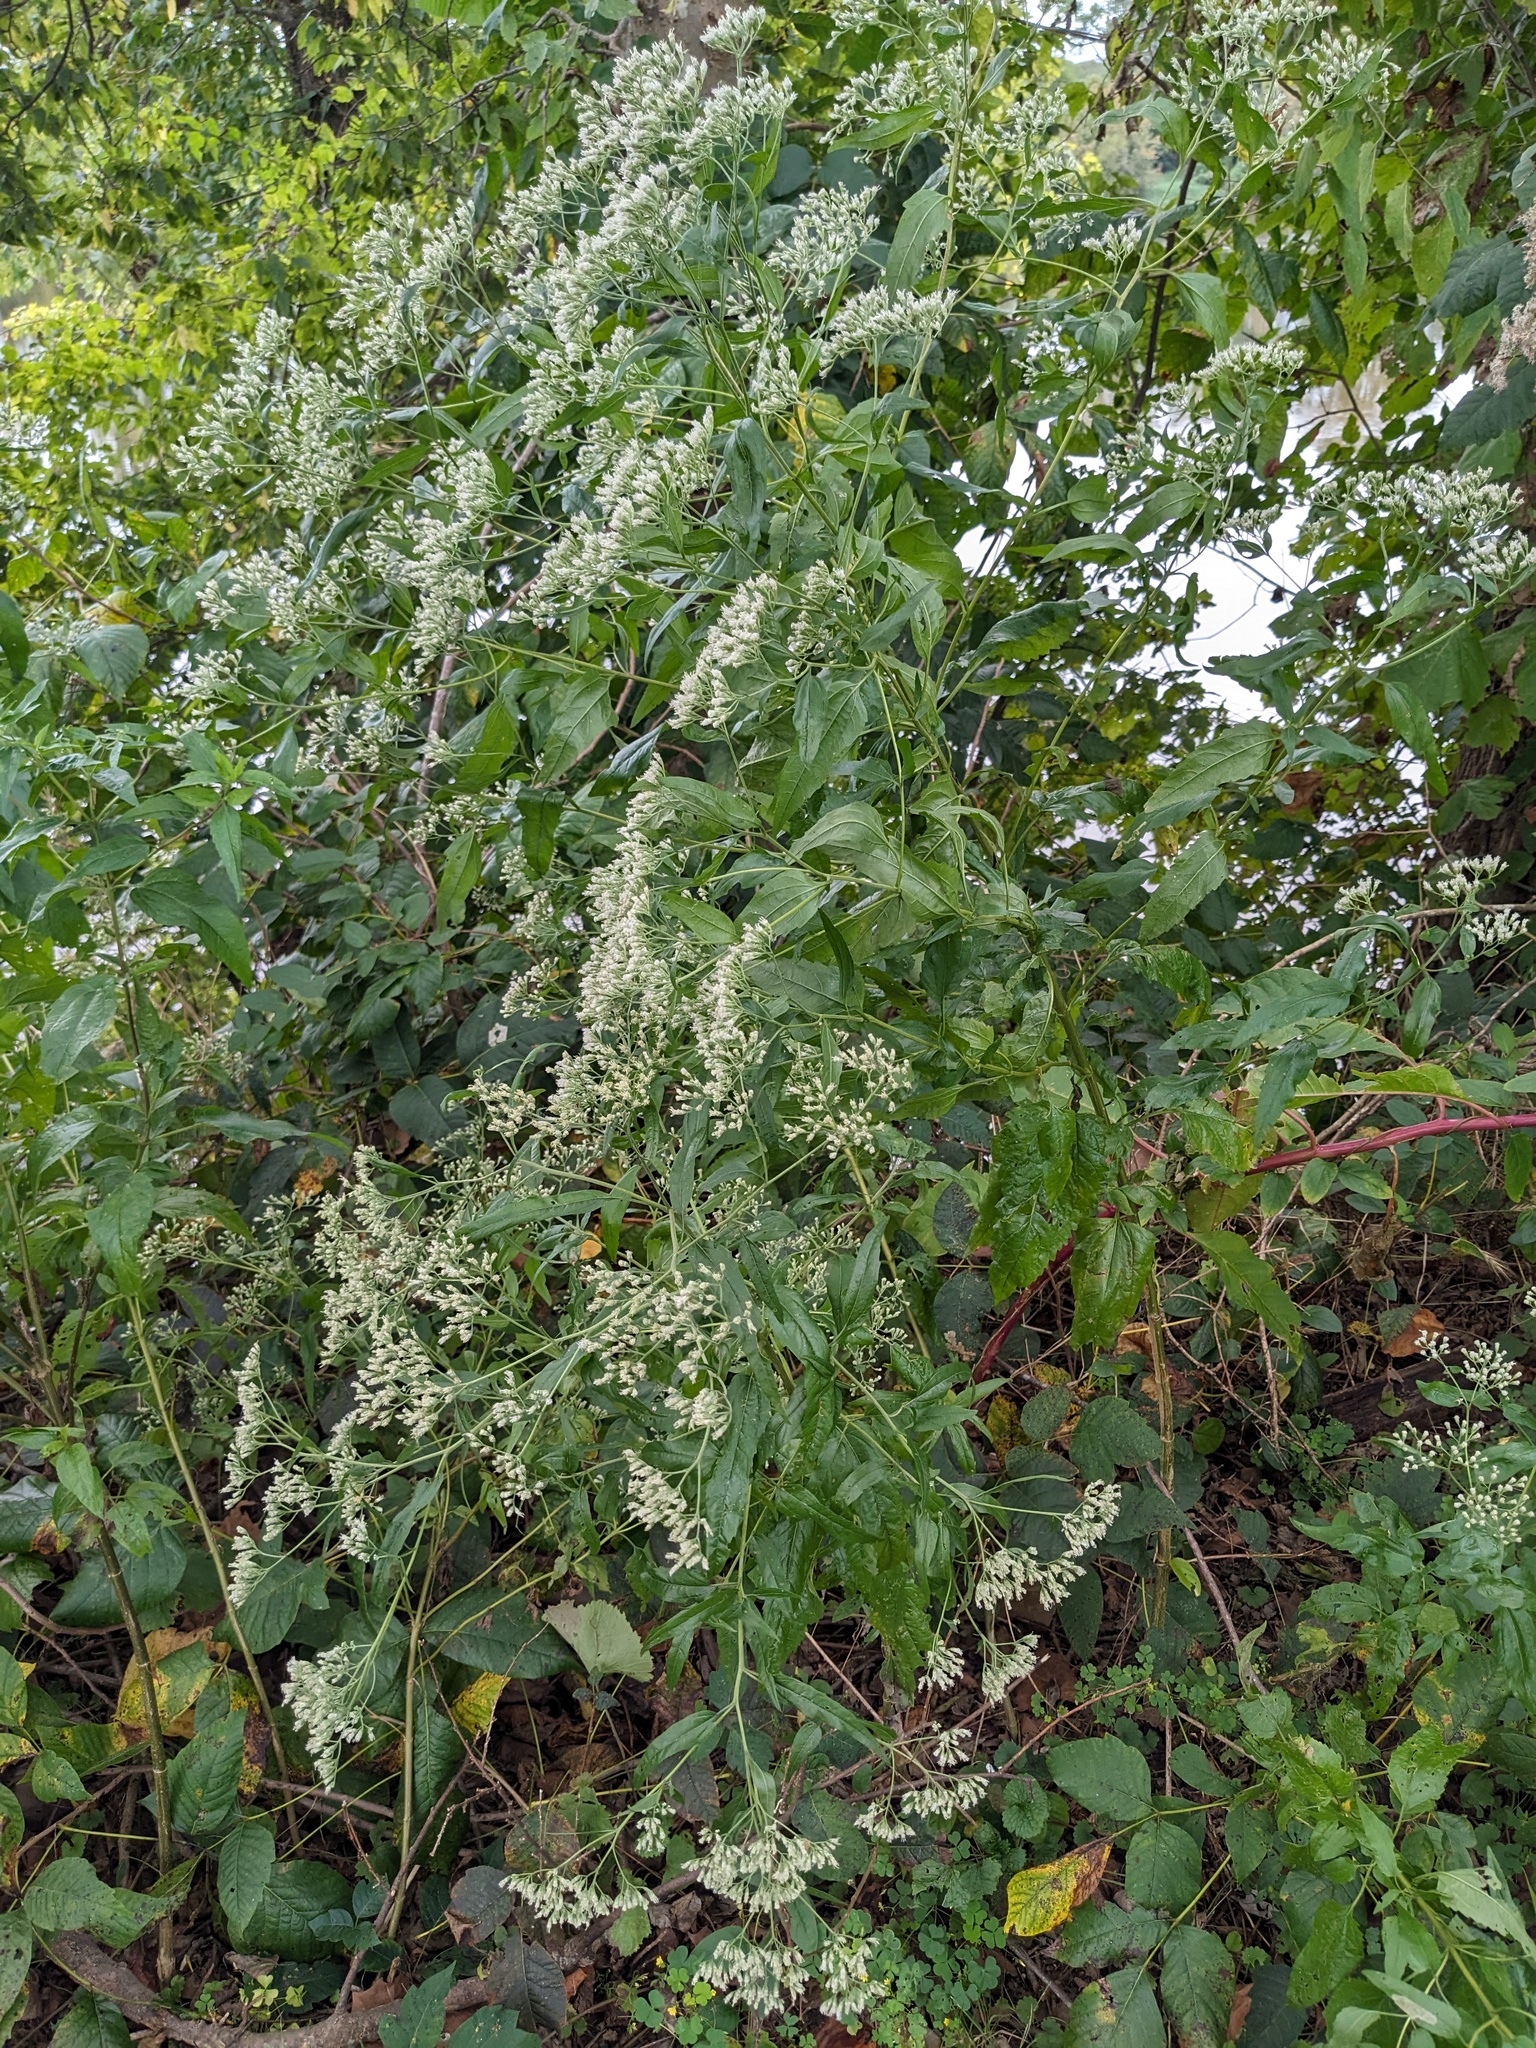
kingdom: Plantae
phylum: Tracheophyta
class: Magnoliopsida
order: Asterales
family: Asteraceae
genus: Eupatorium
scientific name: Eupatorium serotinum
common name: Late boneset
